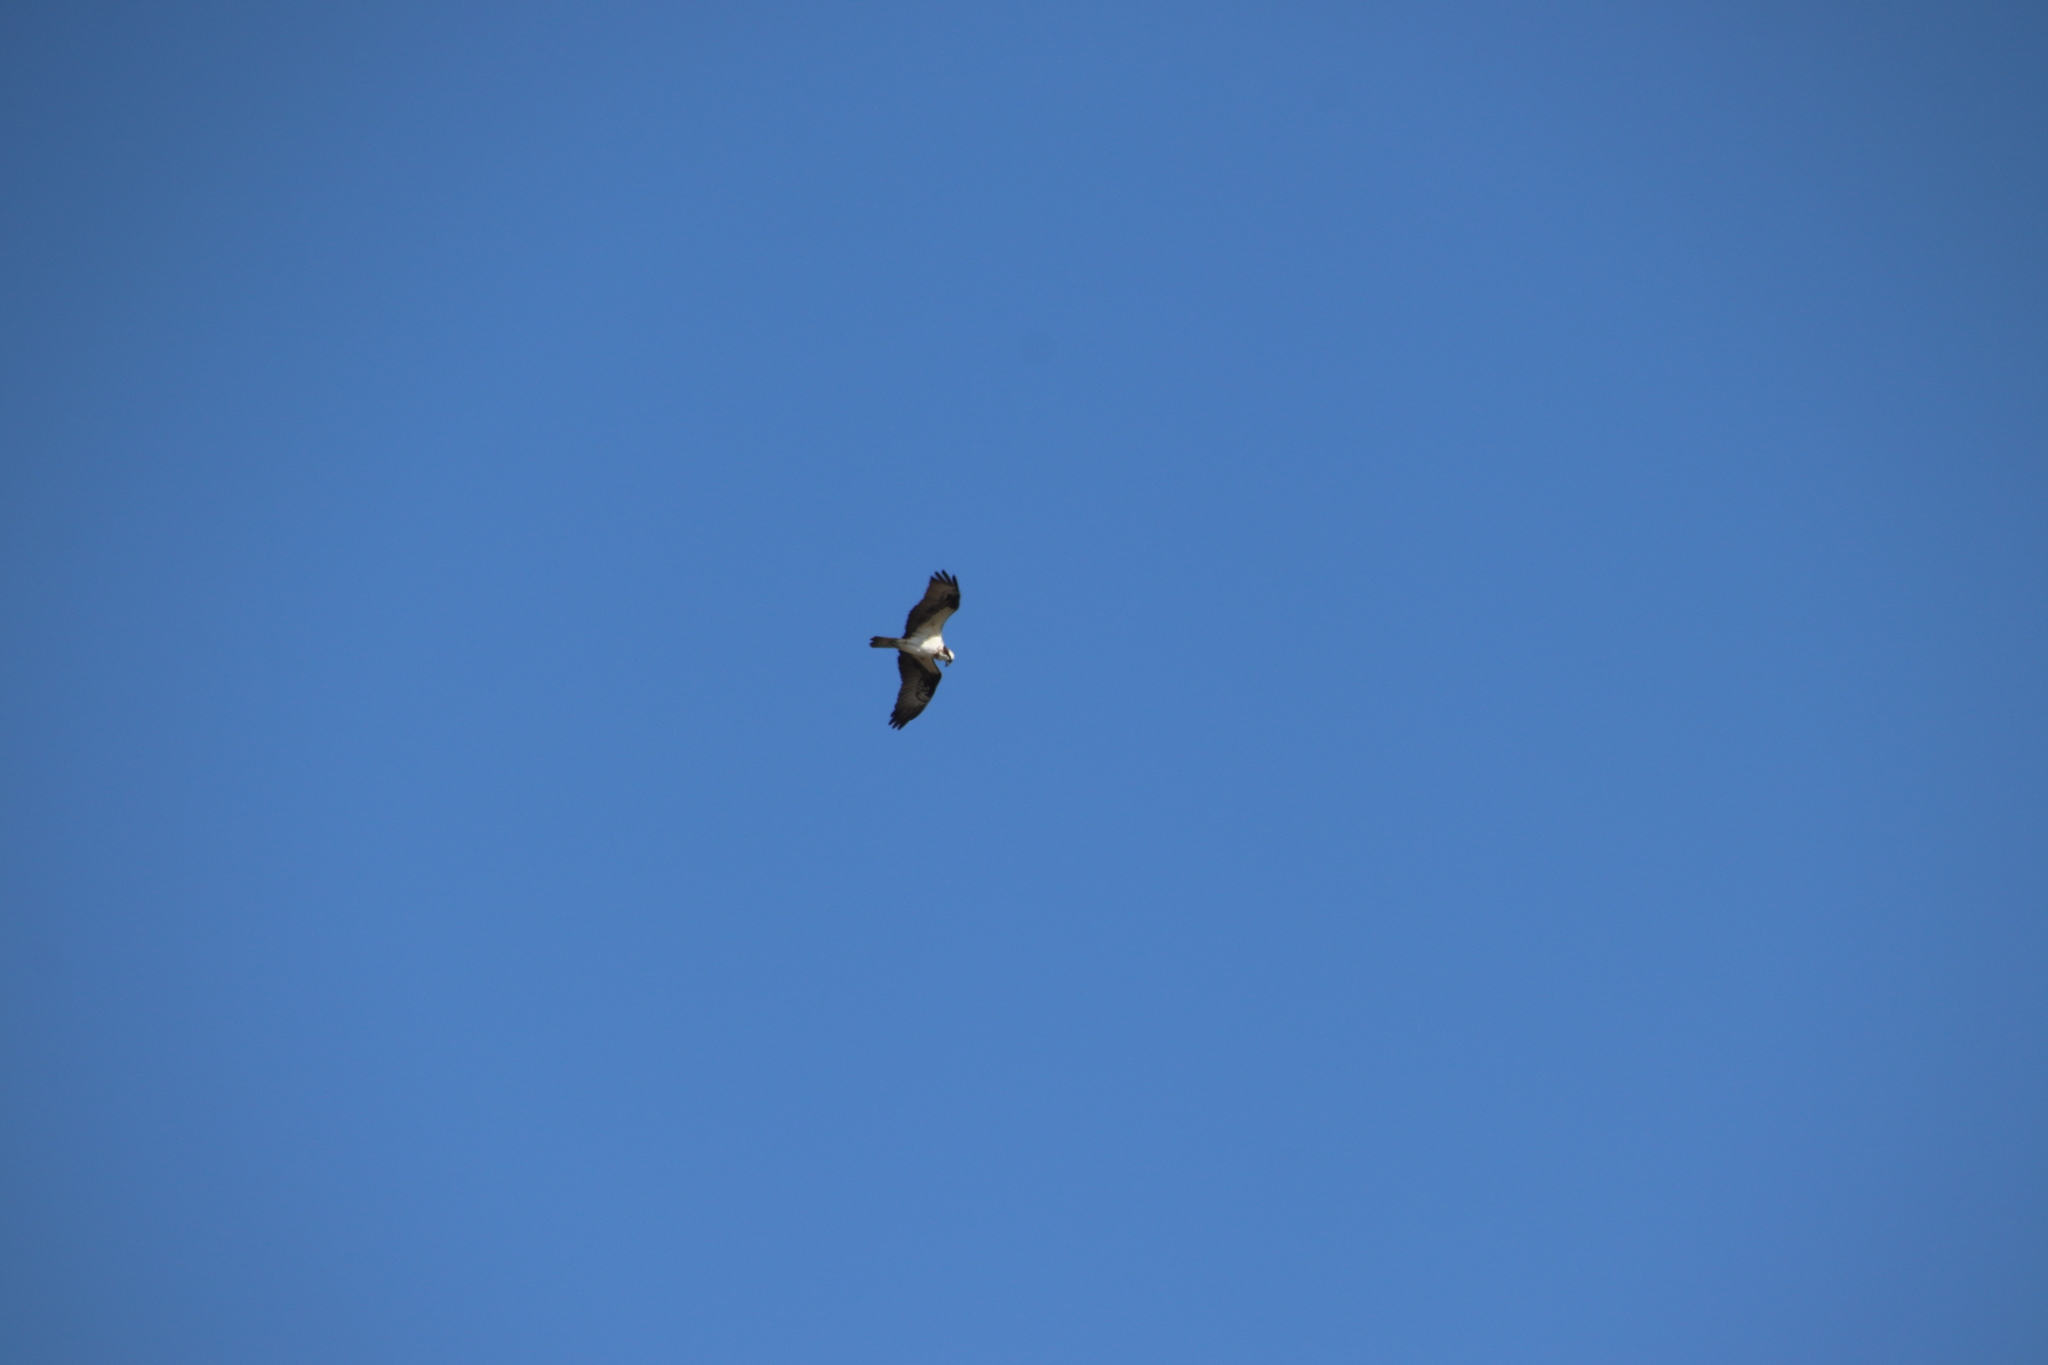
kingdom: Animalia
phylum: Chordata
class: Aves
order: Accipitriformes
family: Pandionidae
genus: Pandion
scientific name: Pandion haliaetus
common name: Osprey
